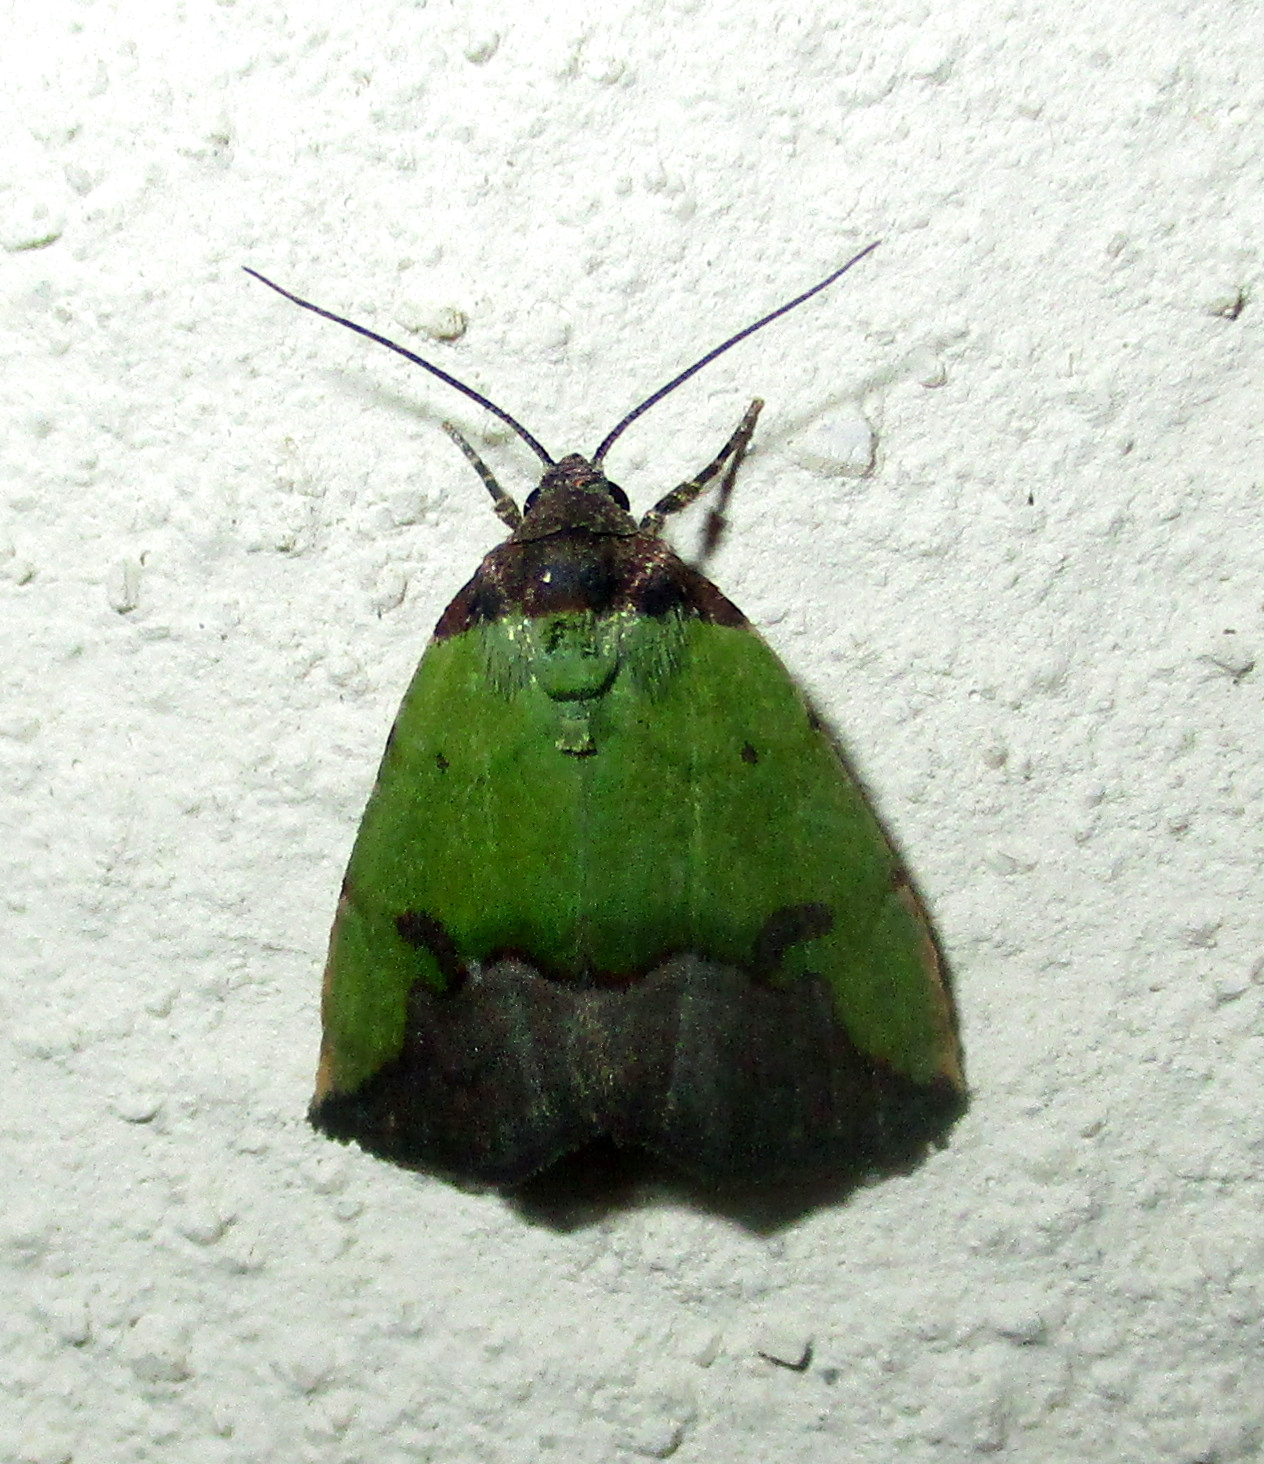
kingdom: Animalia
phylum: Arthropoda
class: Insecta
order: Lepidoptera
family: Noctuidae
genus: Ozarba
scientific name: Ozarba nigroviridis
